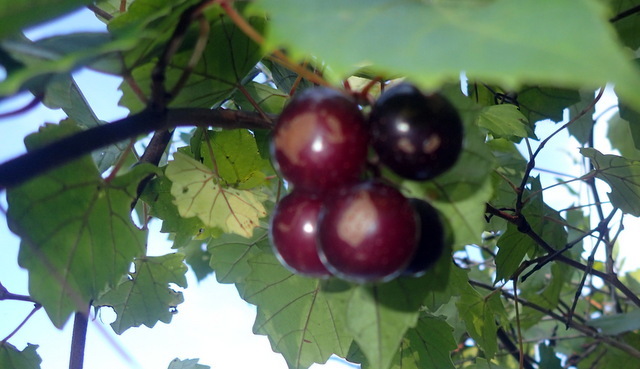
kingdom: Plantae
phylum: Tracheophyta
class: Magnoliopsida
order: Vitales
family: Vitaceae
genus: Vitis
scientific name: Vitis rotundifolia
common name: Muscadine grape
